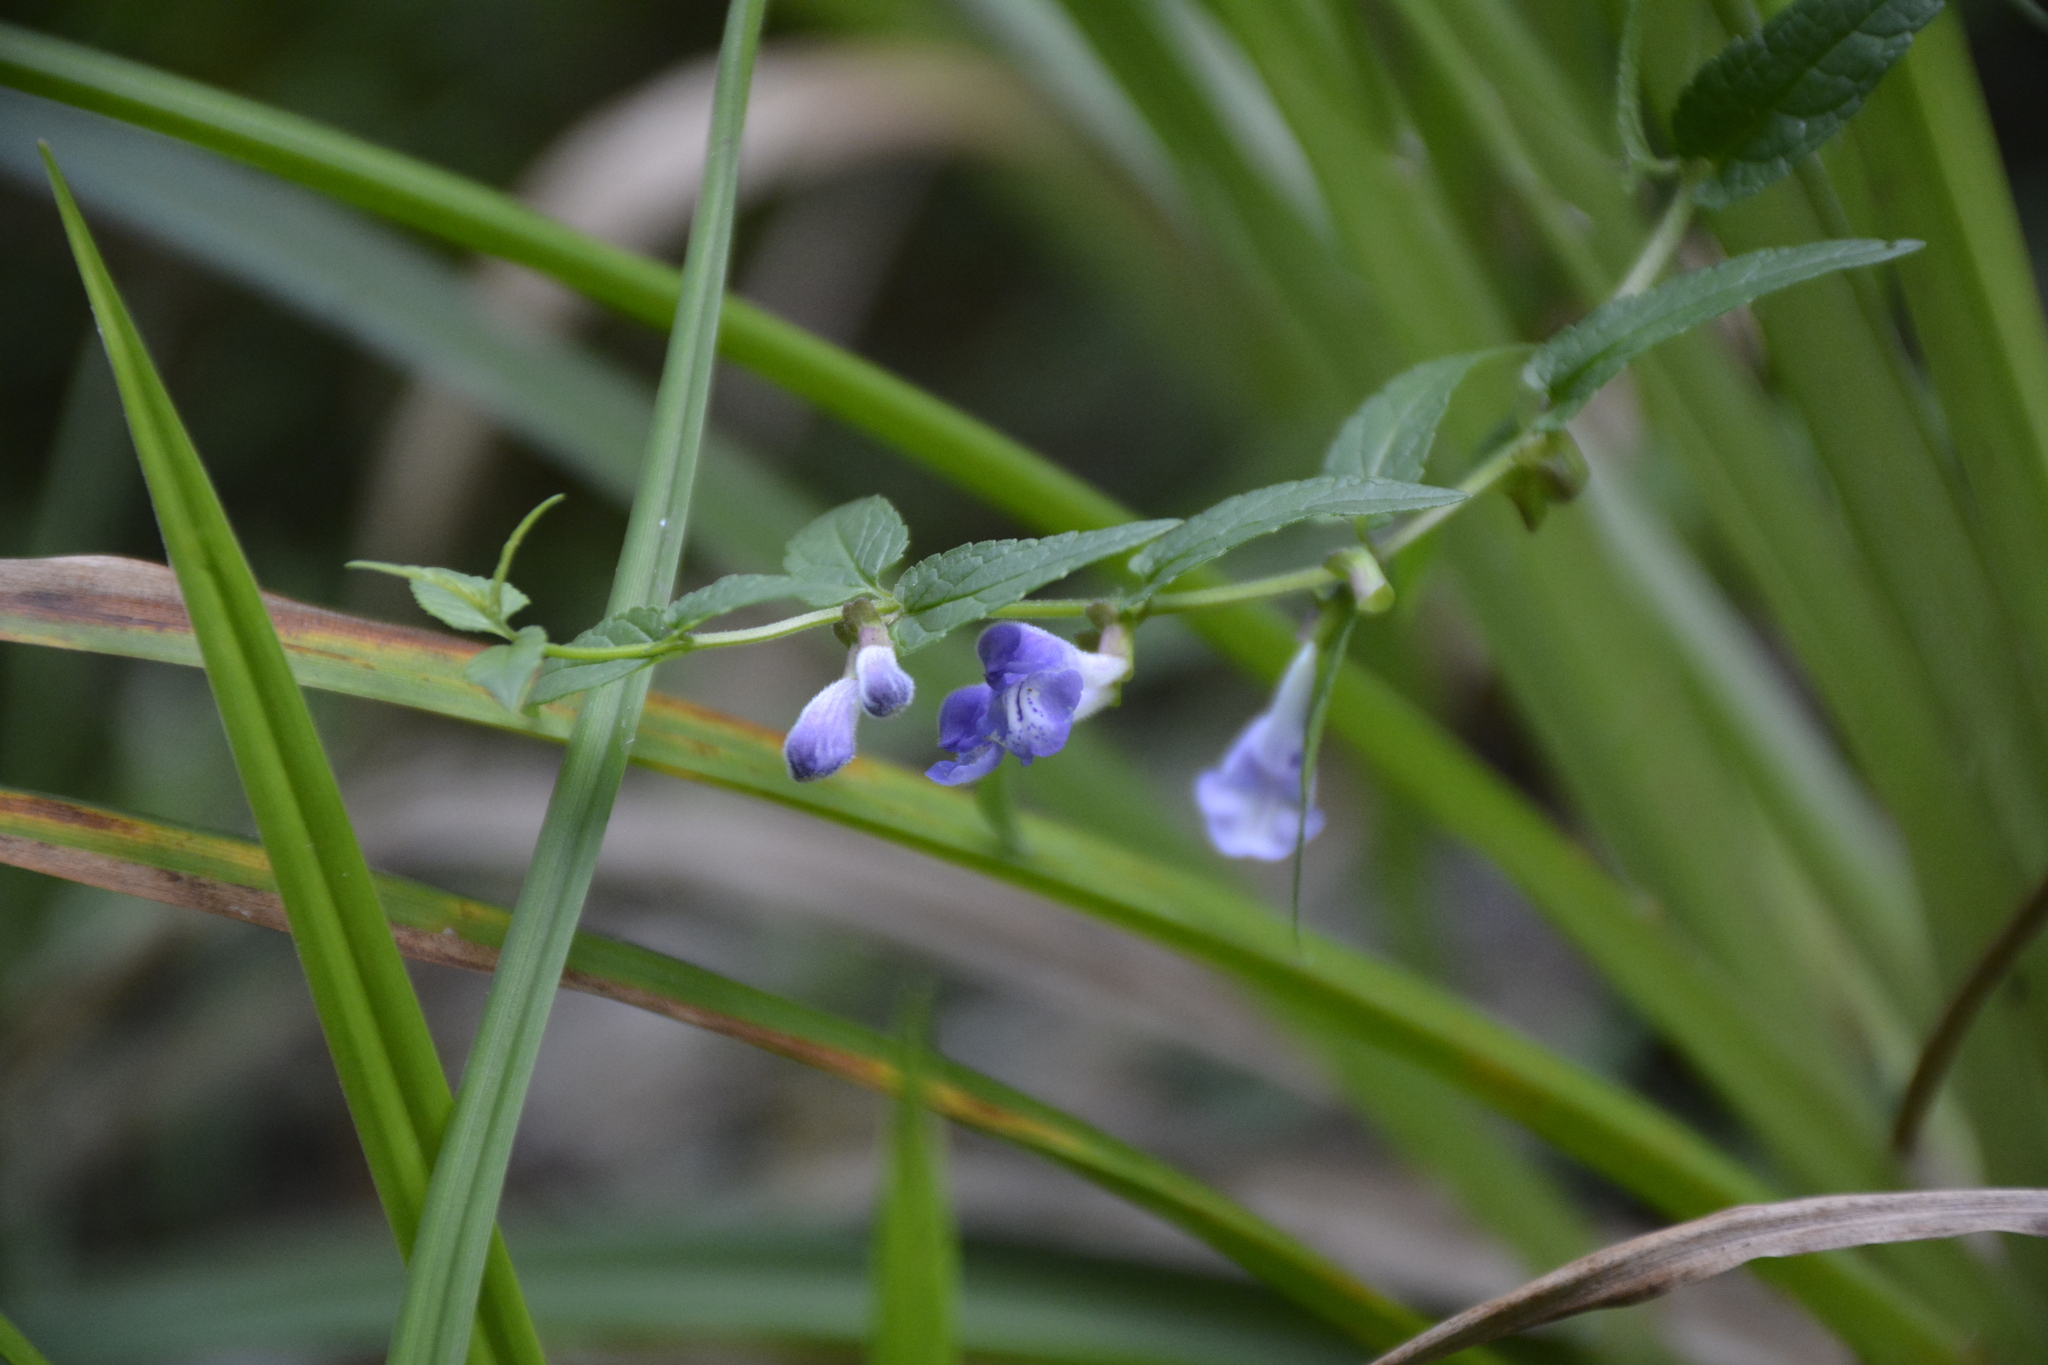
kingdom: Plantae
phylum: Tracheophyta
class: Magnoliopsida
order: Lamiales
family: Lamiaceae
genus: Scutellaria
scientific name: Scutellaria galericulata
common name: Skullcap
